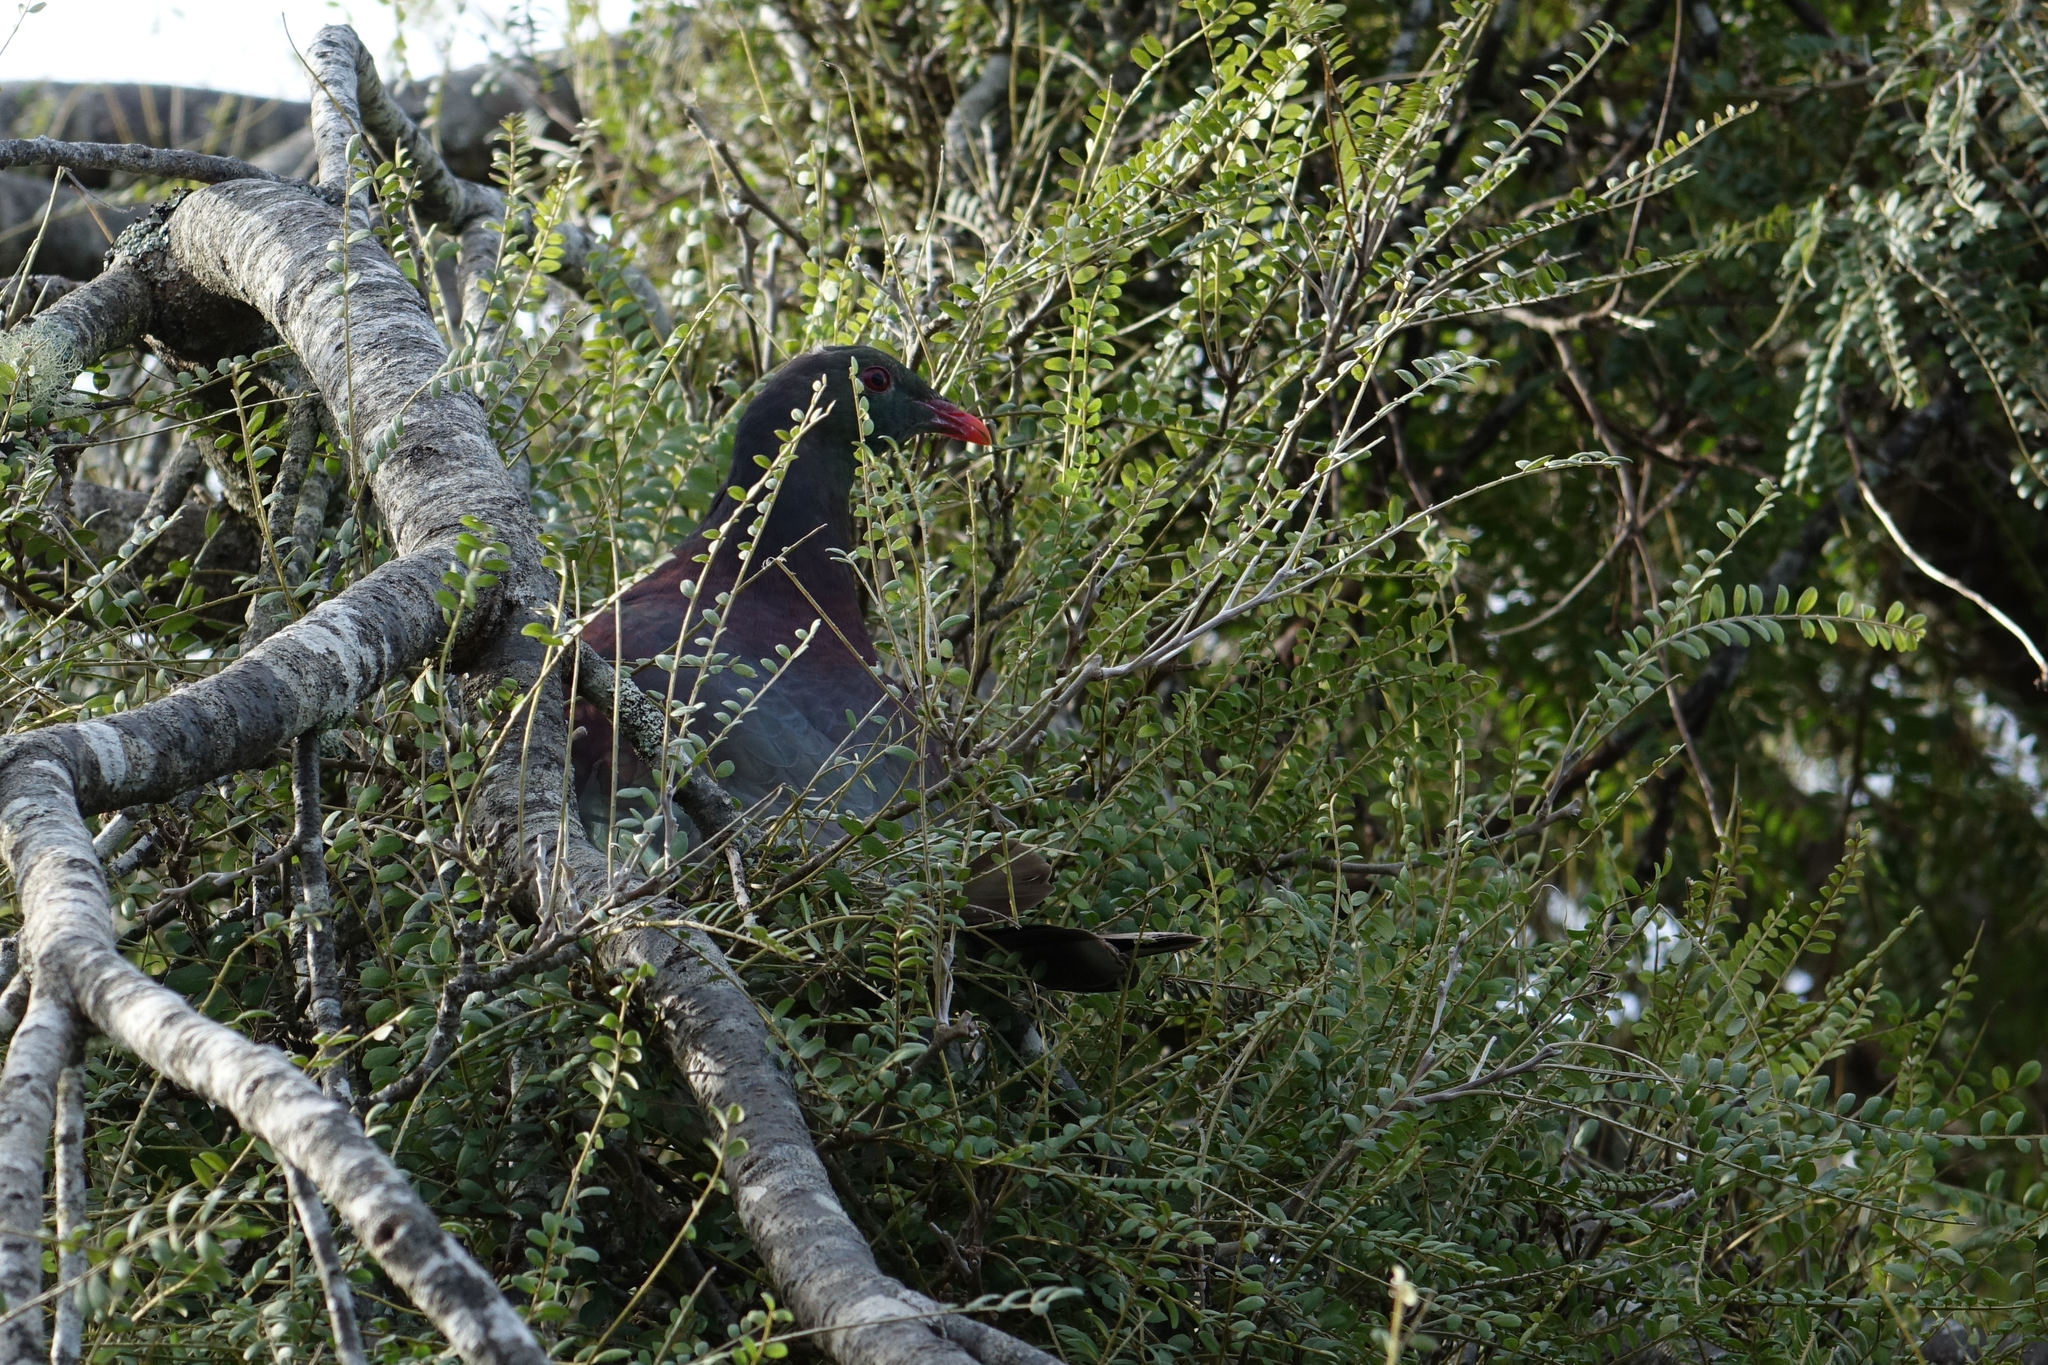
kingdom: Animalia
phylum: Chordata
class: Aves
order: Columbiformes
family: Columbidae
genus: Hemiphaga
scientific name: Hemiphaga novaeseelandiae
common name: New zealand pigeon
